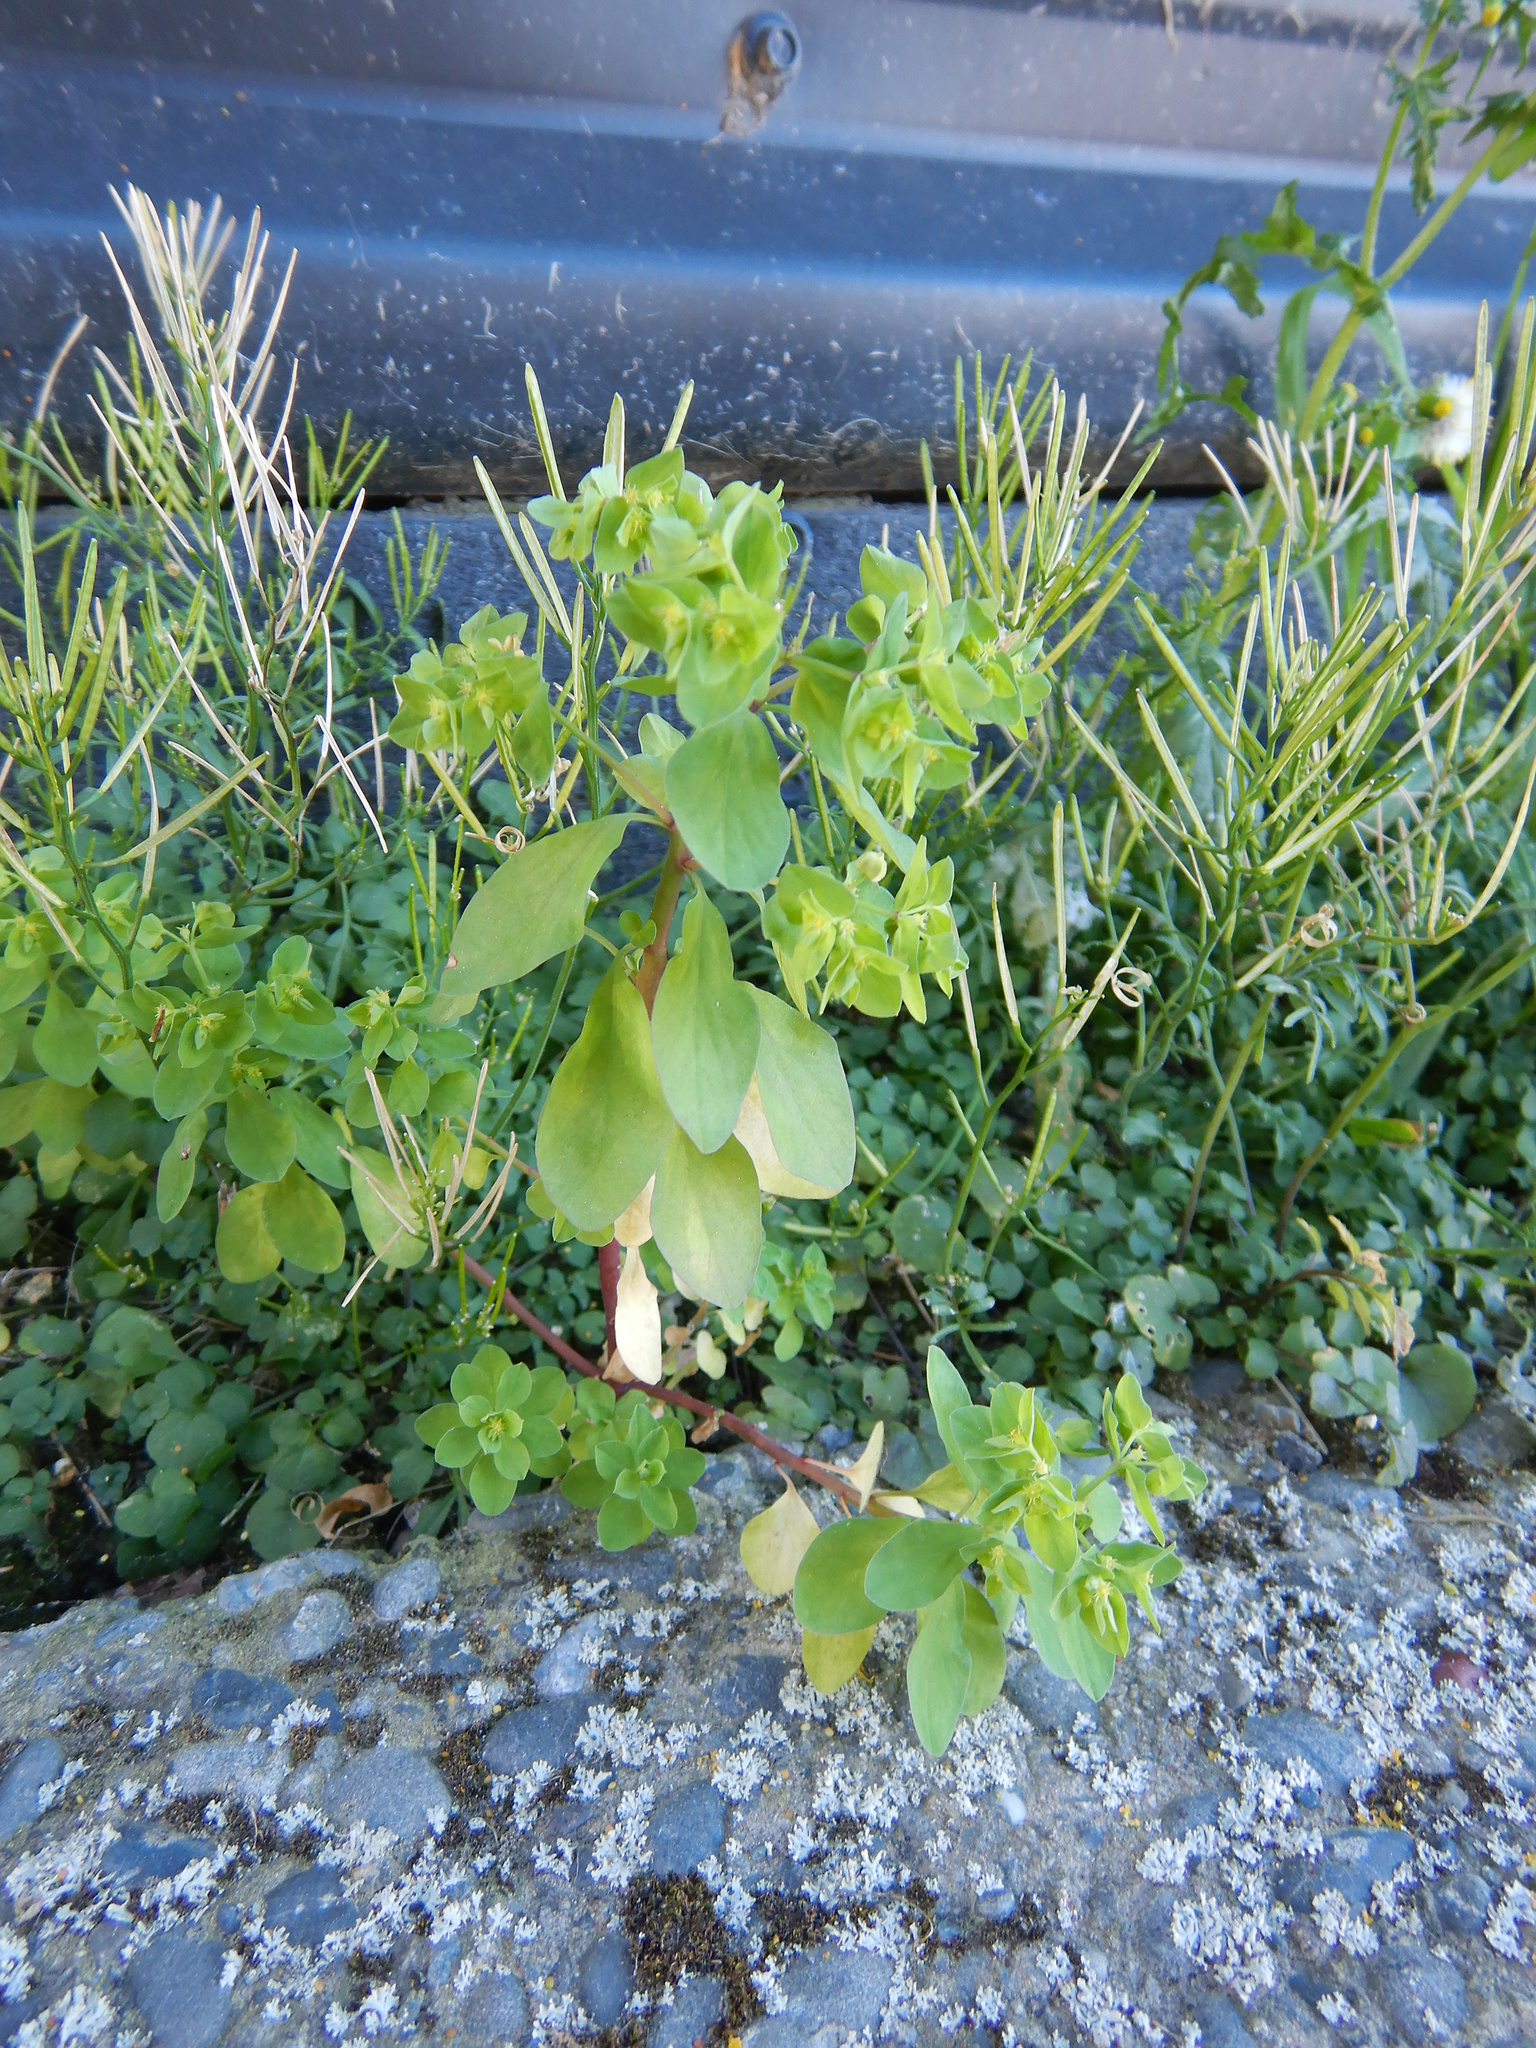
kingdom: Plantae
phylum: Tracheophyta
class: Magnoliopsida
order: Malpighiales
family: Euphorbiaceae
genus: Euphorbia
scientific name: Euphorbia peplus
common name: Petty spurge
